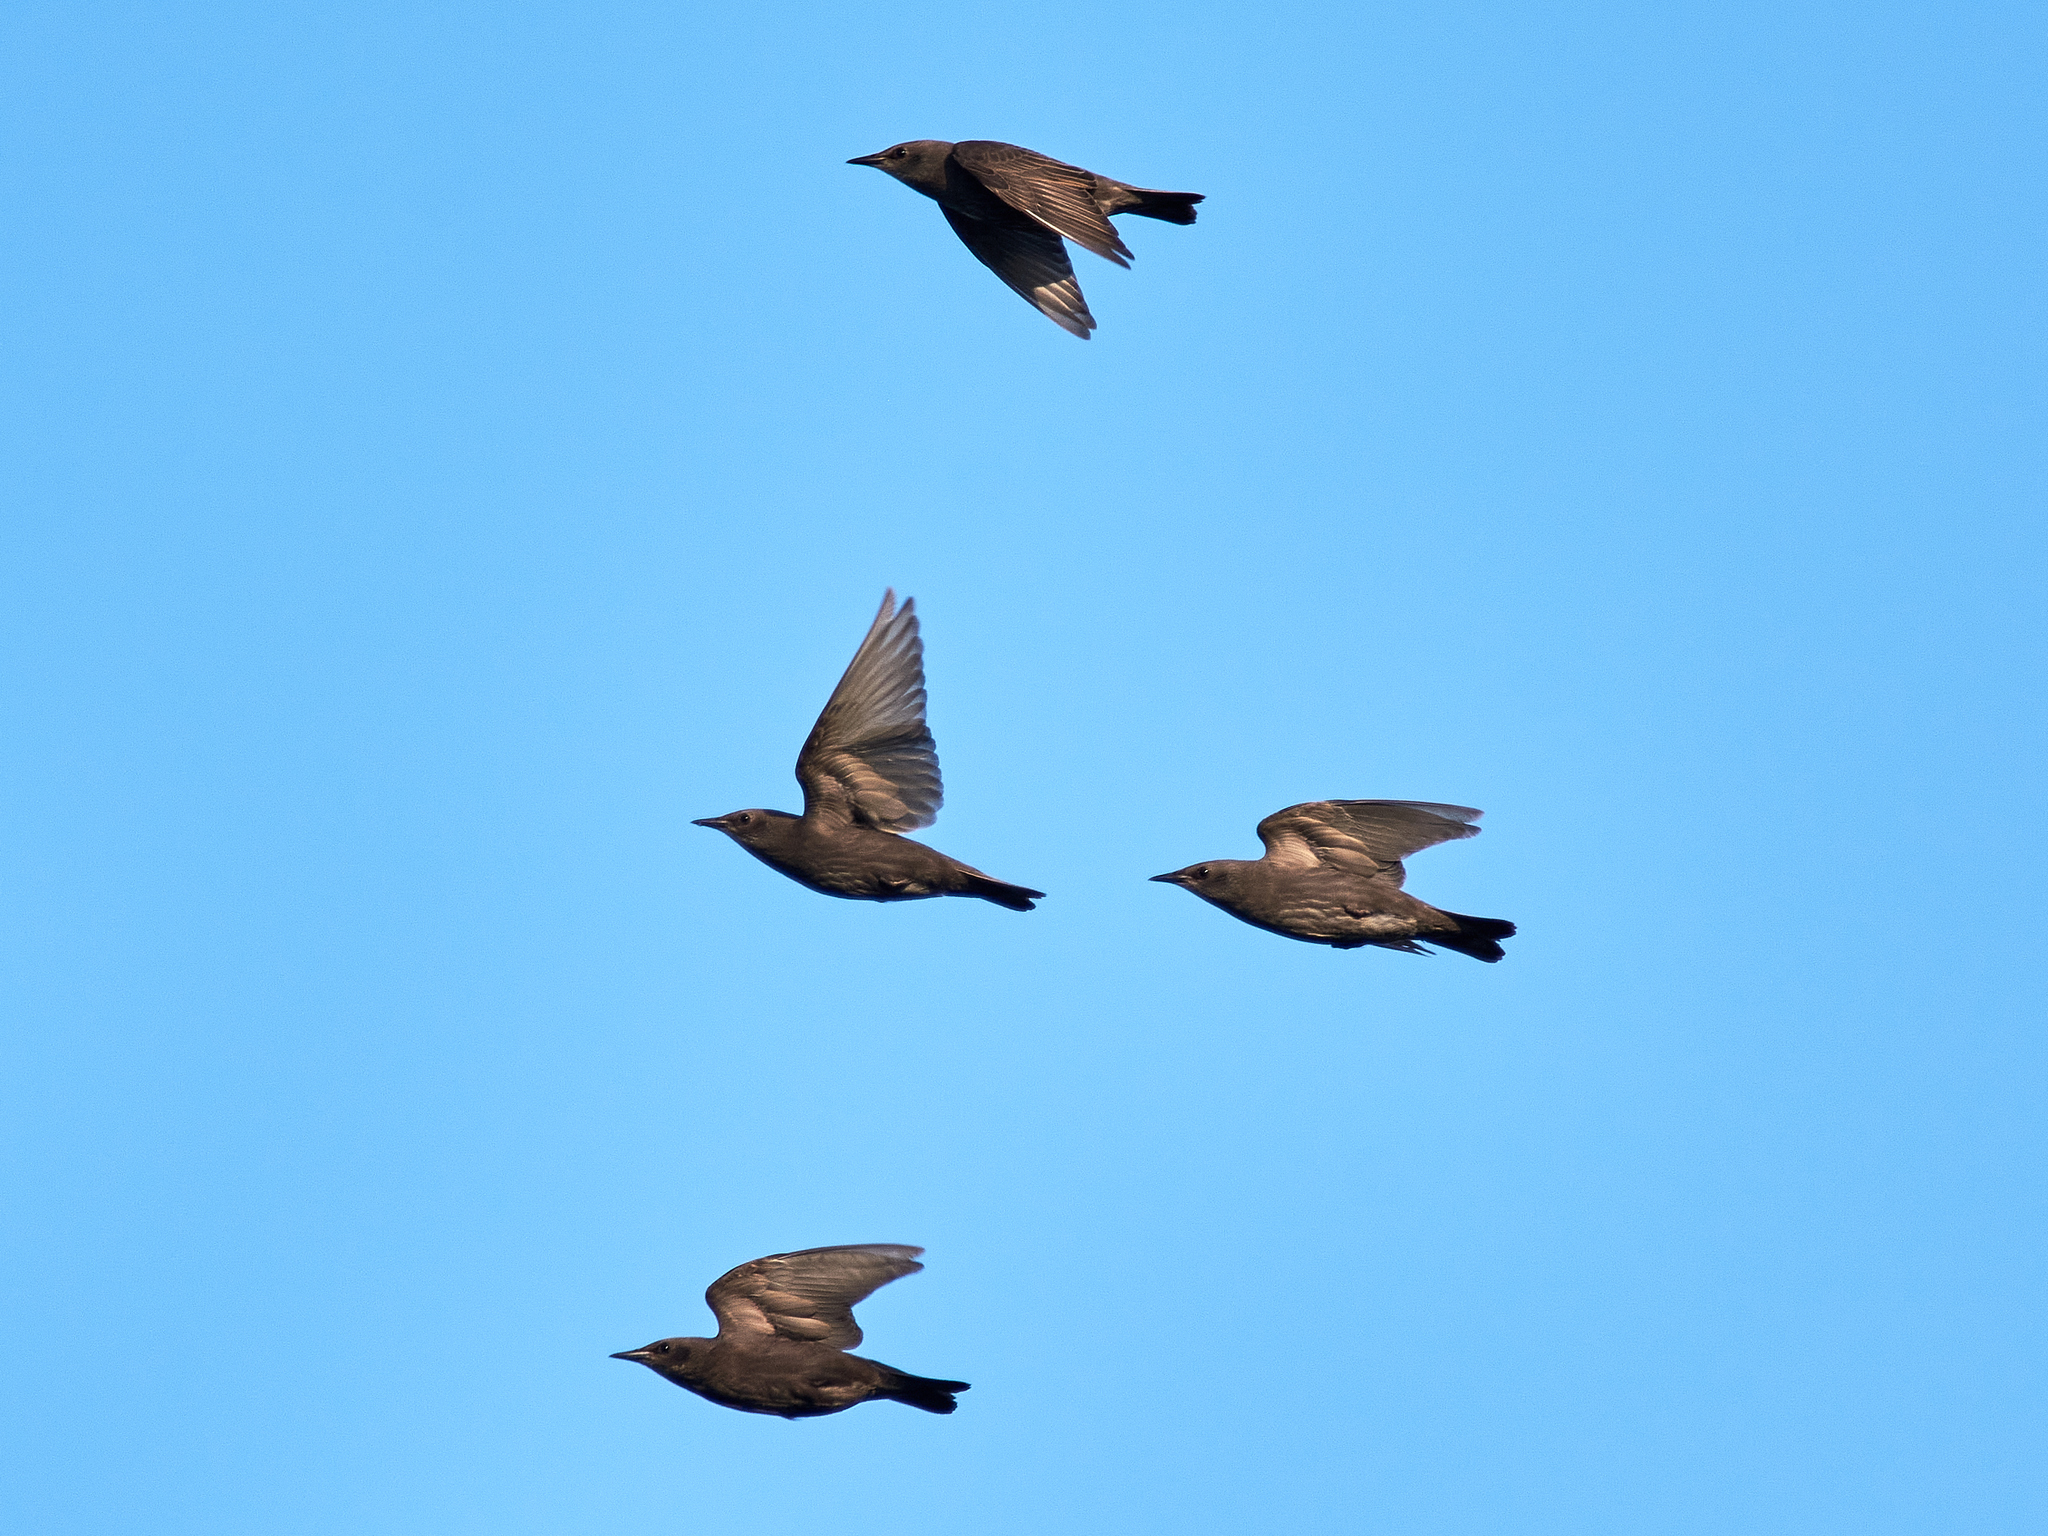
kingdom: Animalia
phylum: Chordata
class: Aves
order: Passeriformes
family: Sturnidae
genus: Sturnus
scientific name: Sturnus vulgaris
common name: Common starling
